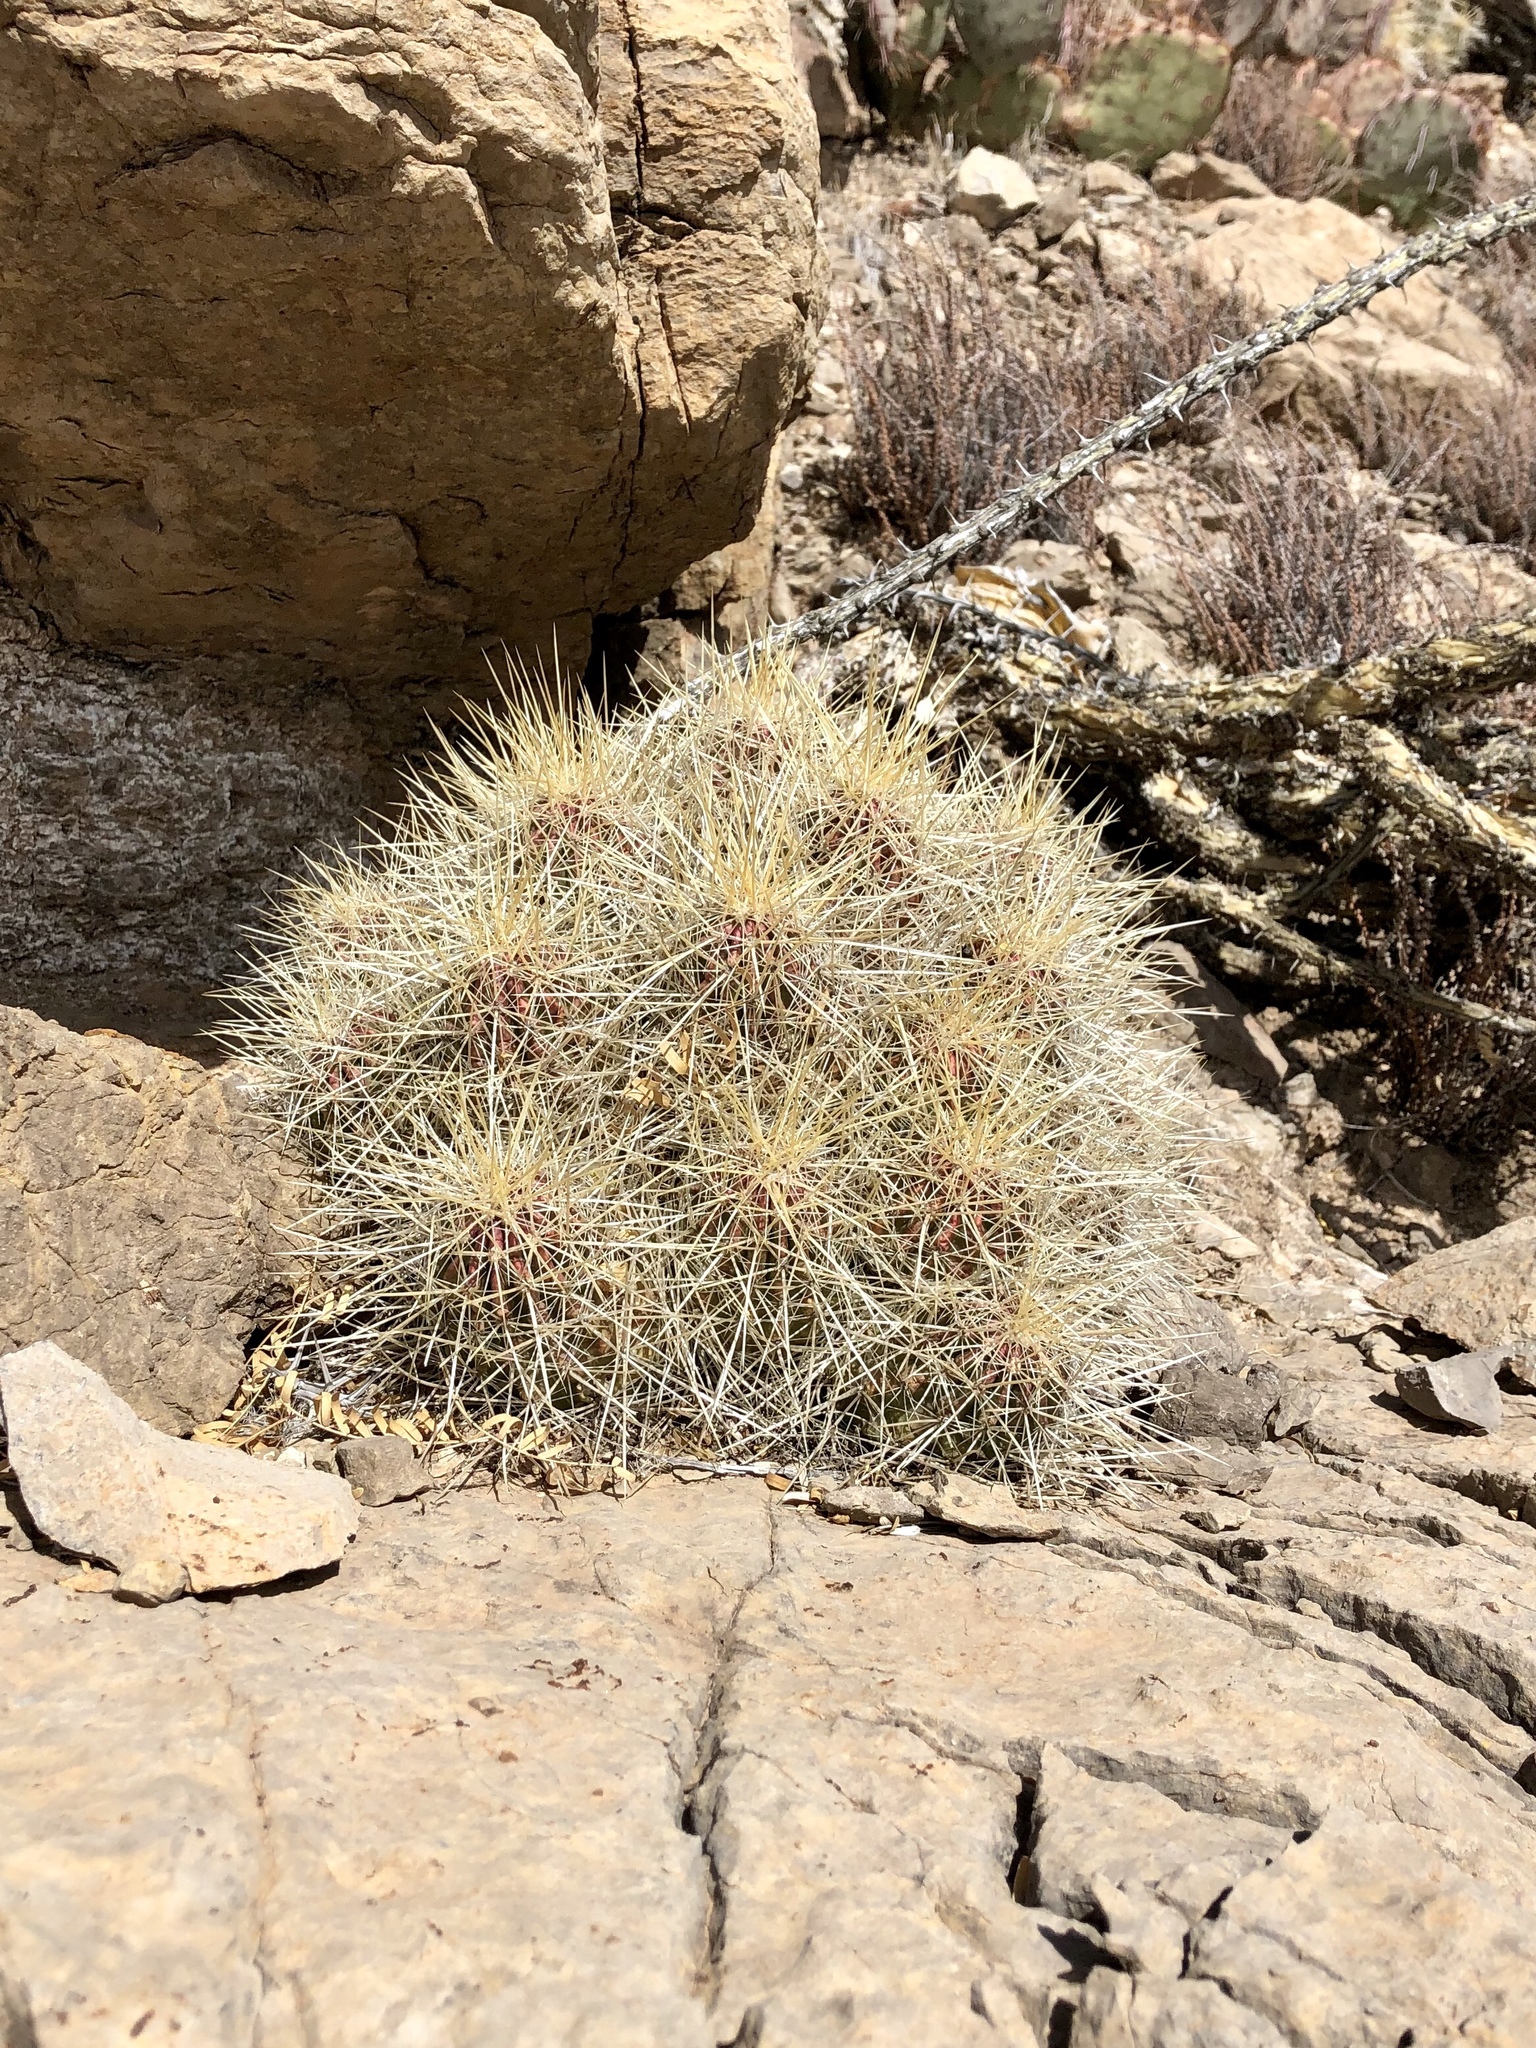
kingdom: Plantae
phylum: Tracheophyta
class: Magnoliopsida
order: Caryophyllales
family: Cactaceae
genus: Echinocereus
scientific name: Echinocereus stramineus
